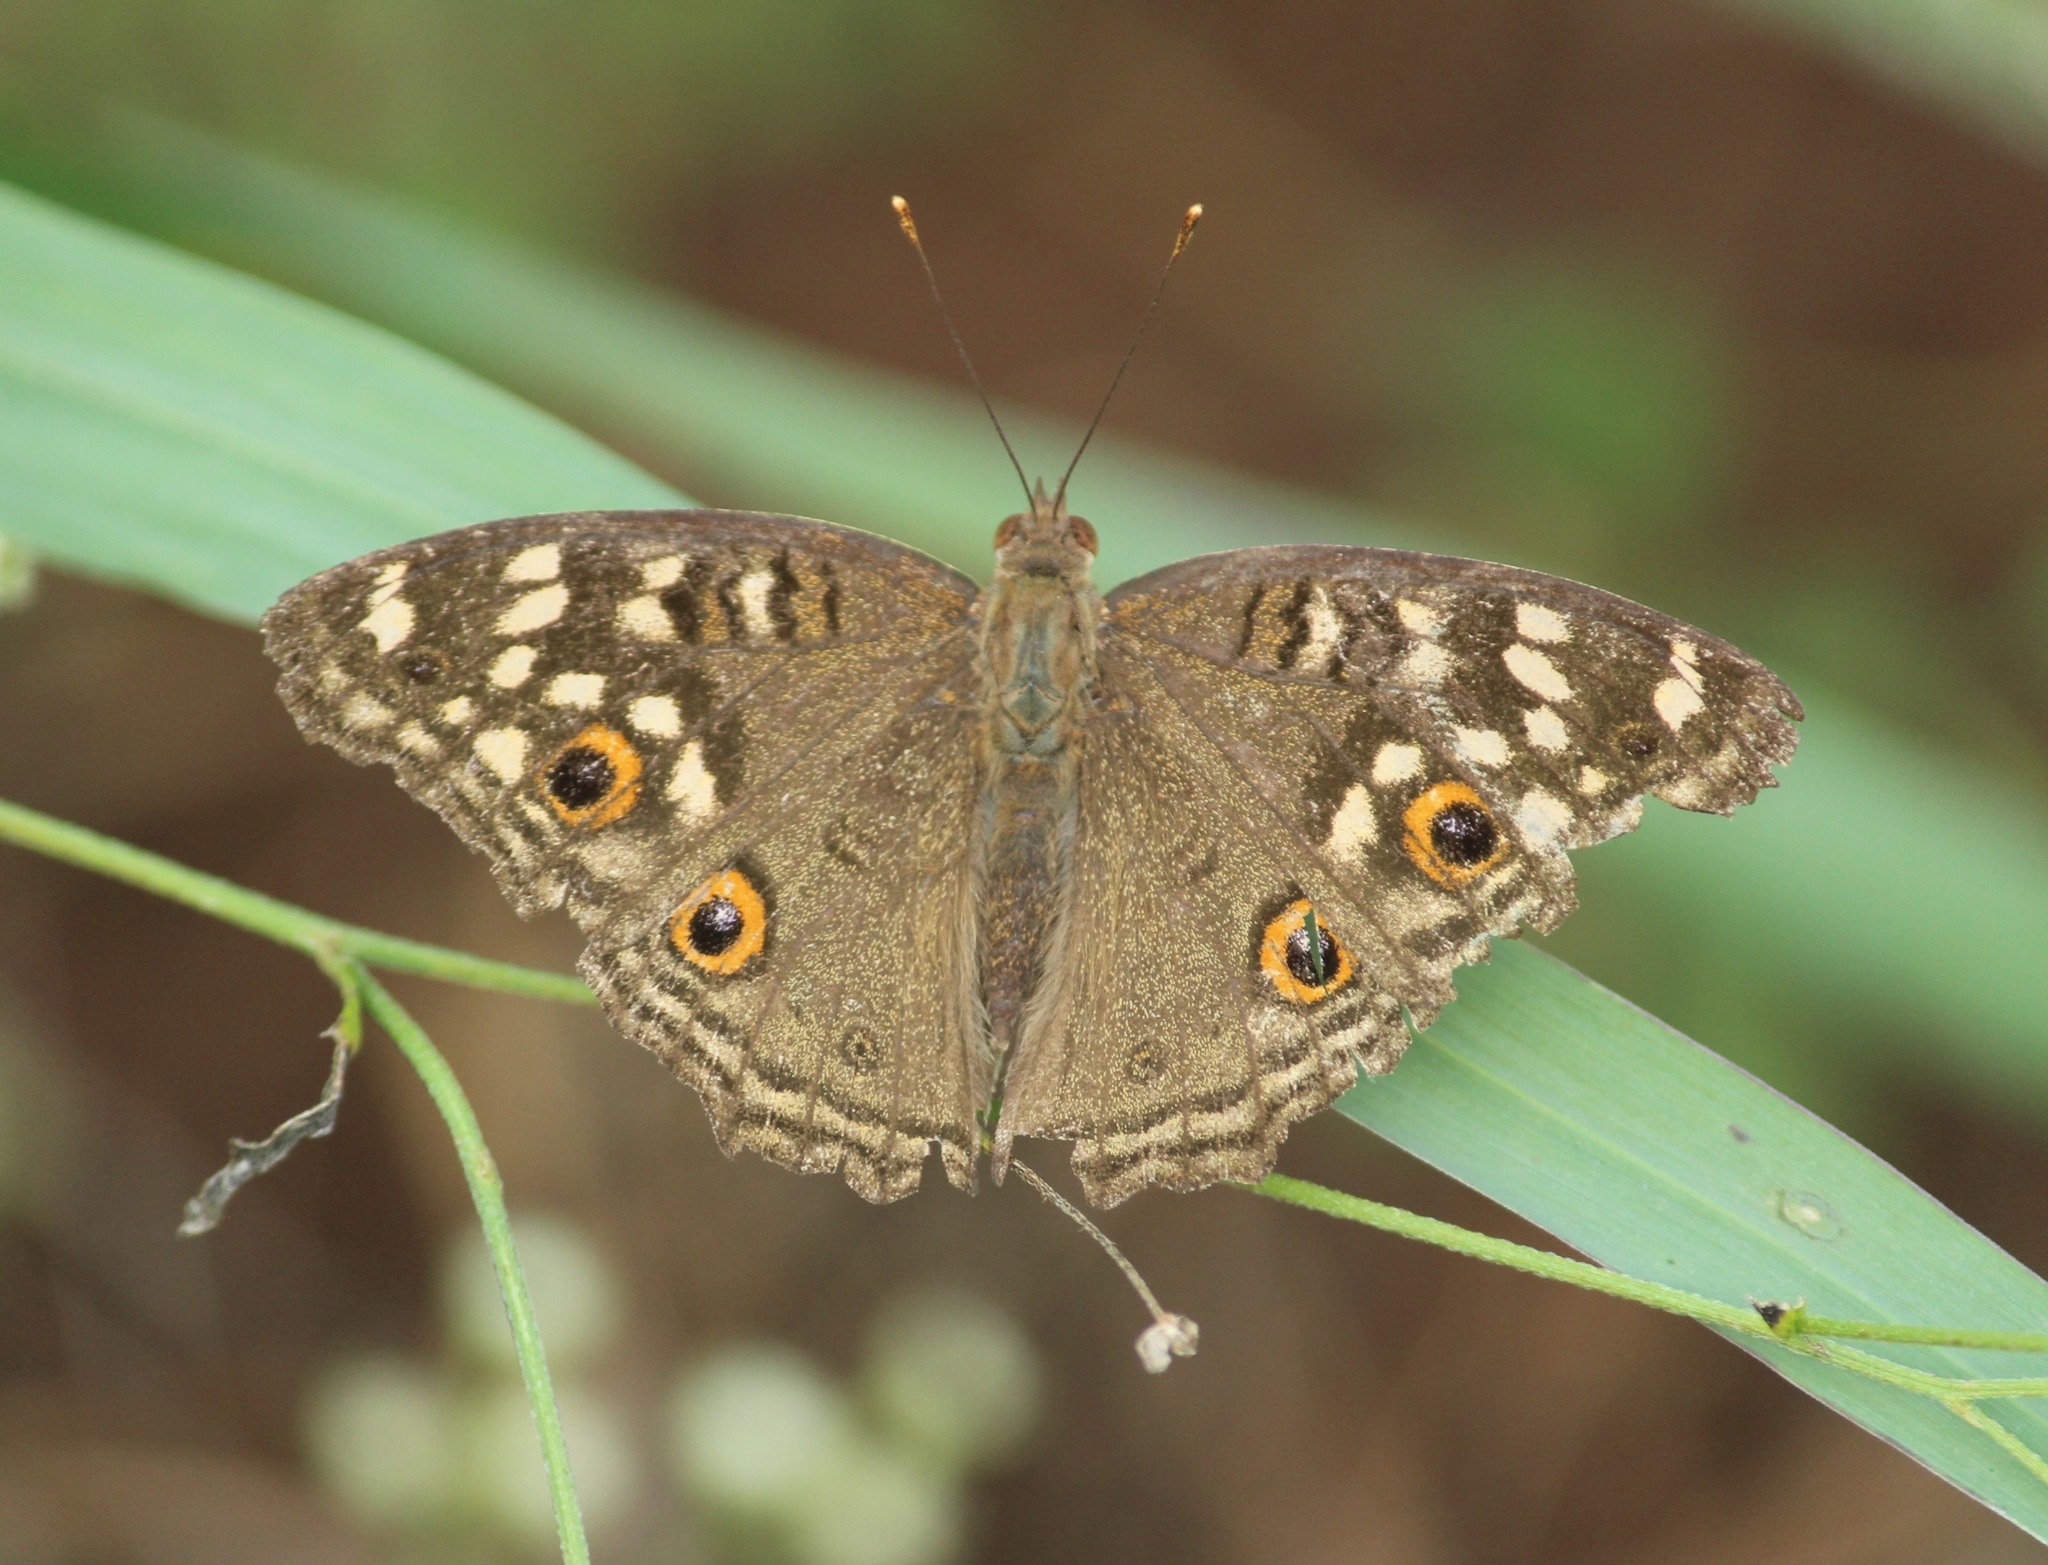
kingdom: Animalia
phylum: Arthropoda
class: Insecta
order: Lepidoptera
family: Nymphalidae
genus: Junonia
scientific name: Junonia lemonias
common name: Lemon pansy
